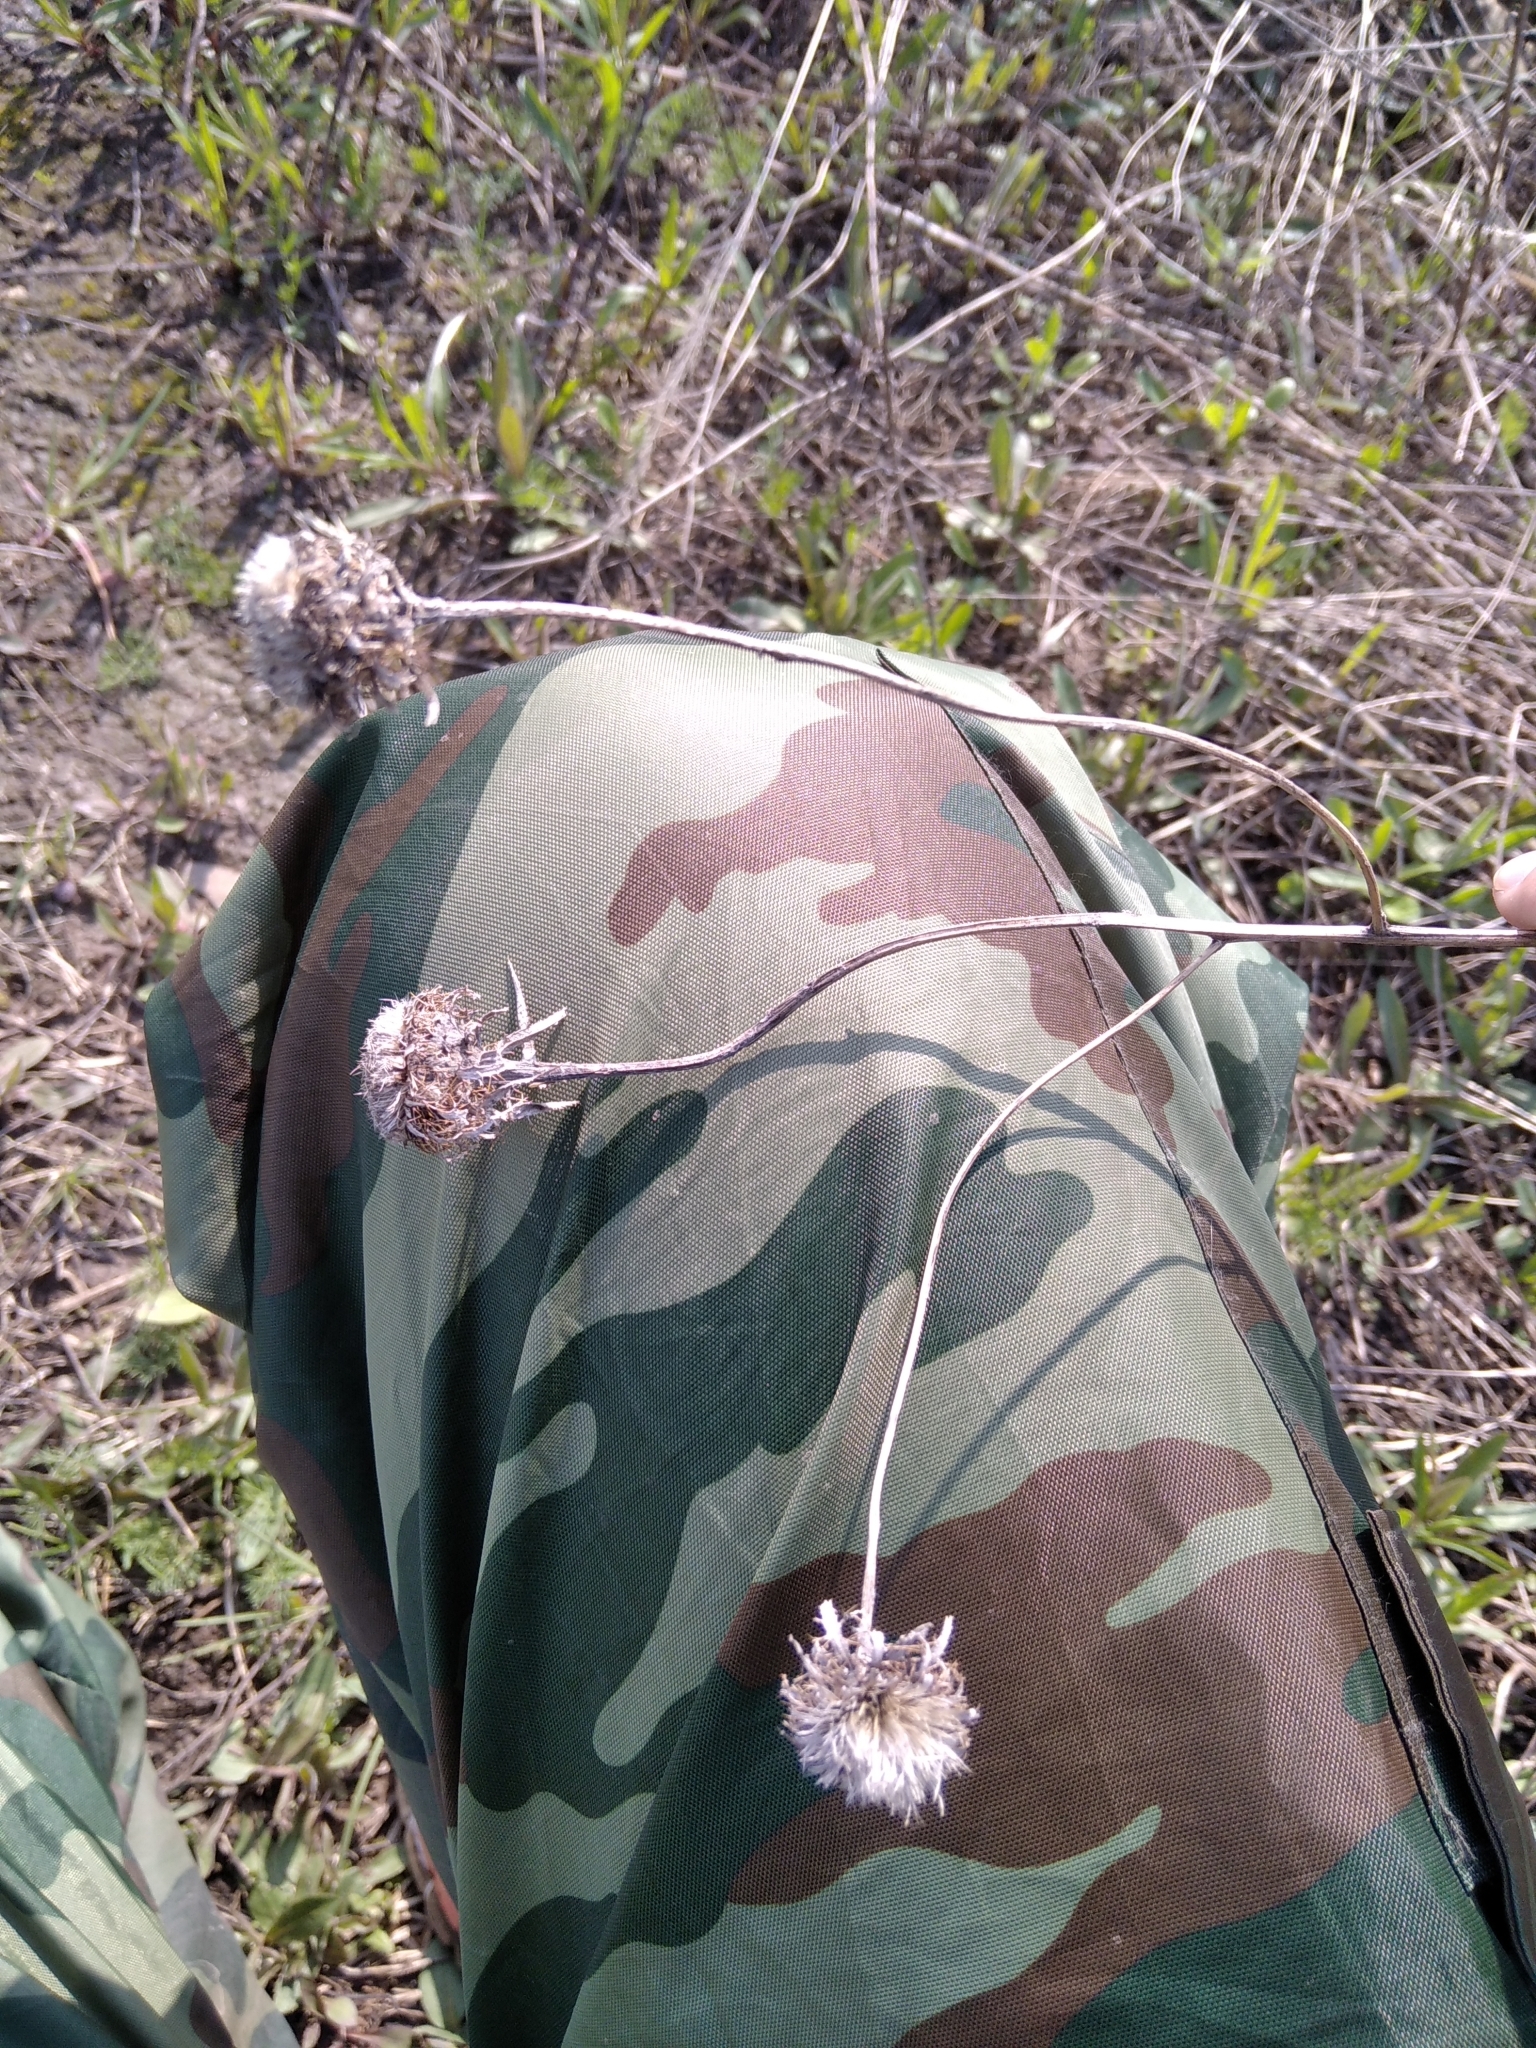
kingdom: Plantae
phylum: Tracheophyta
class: Magnoliopsida
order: Asterales
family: Asteraceae
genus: Carlina
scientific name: Carlina biebersteinii
